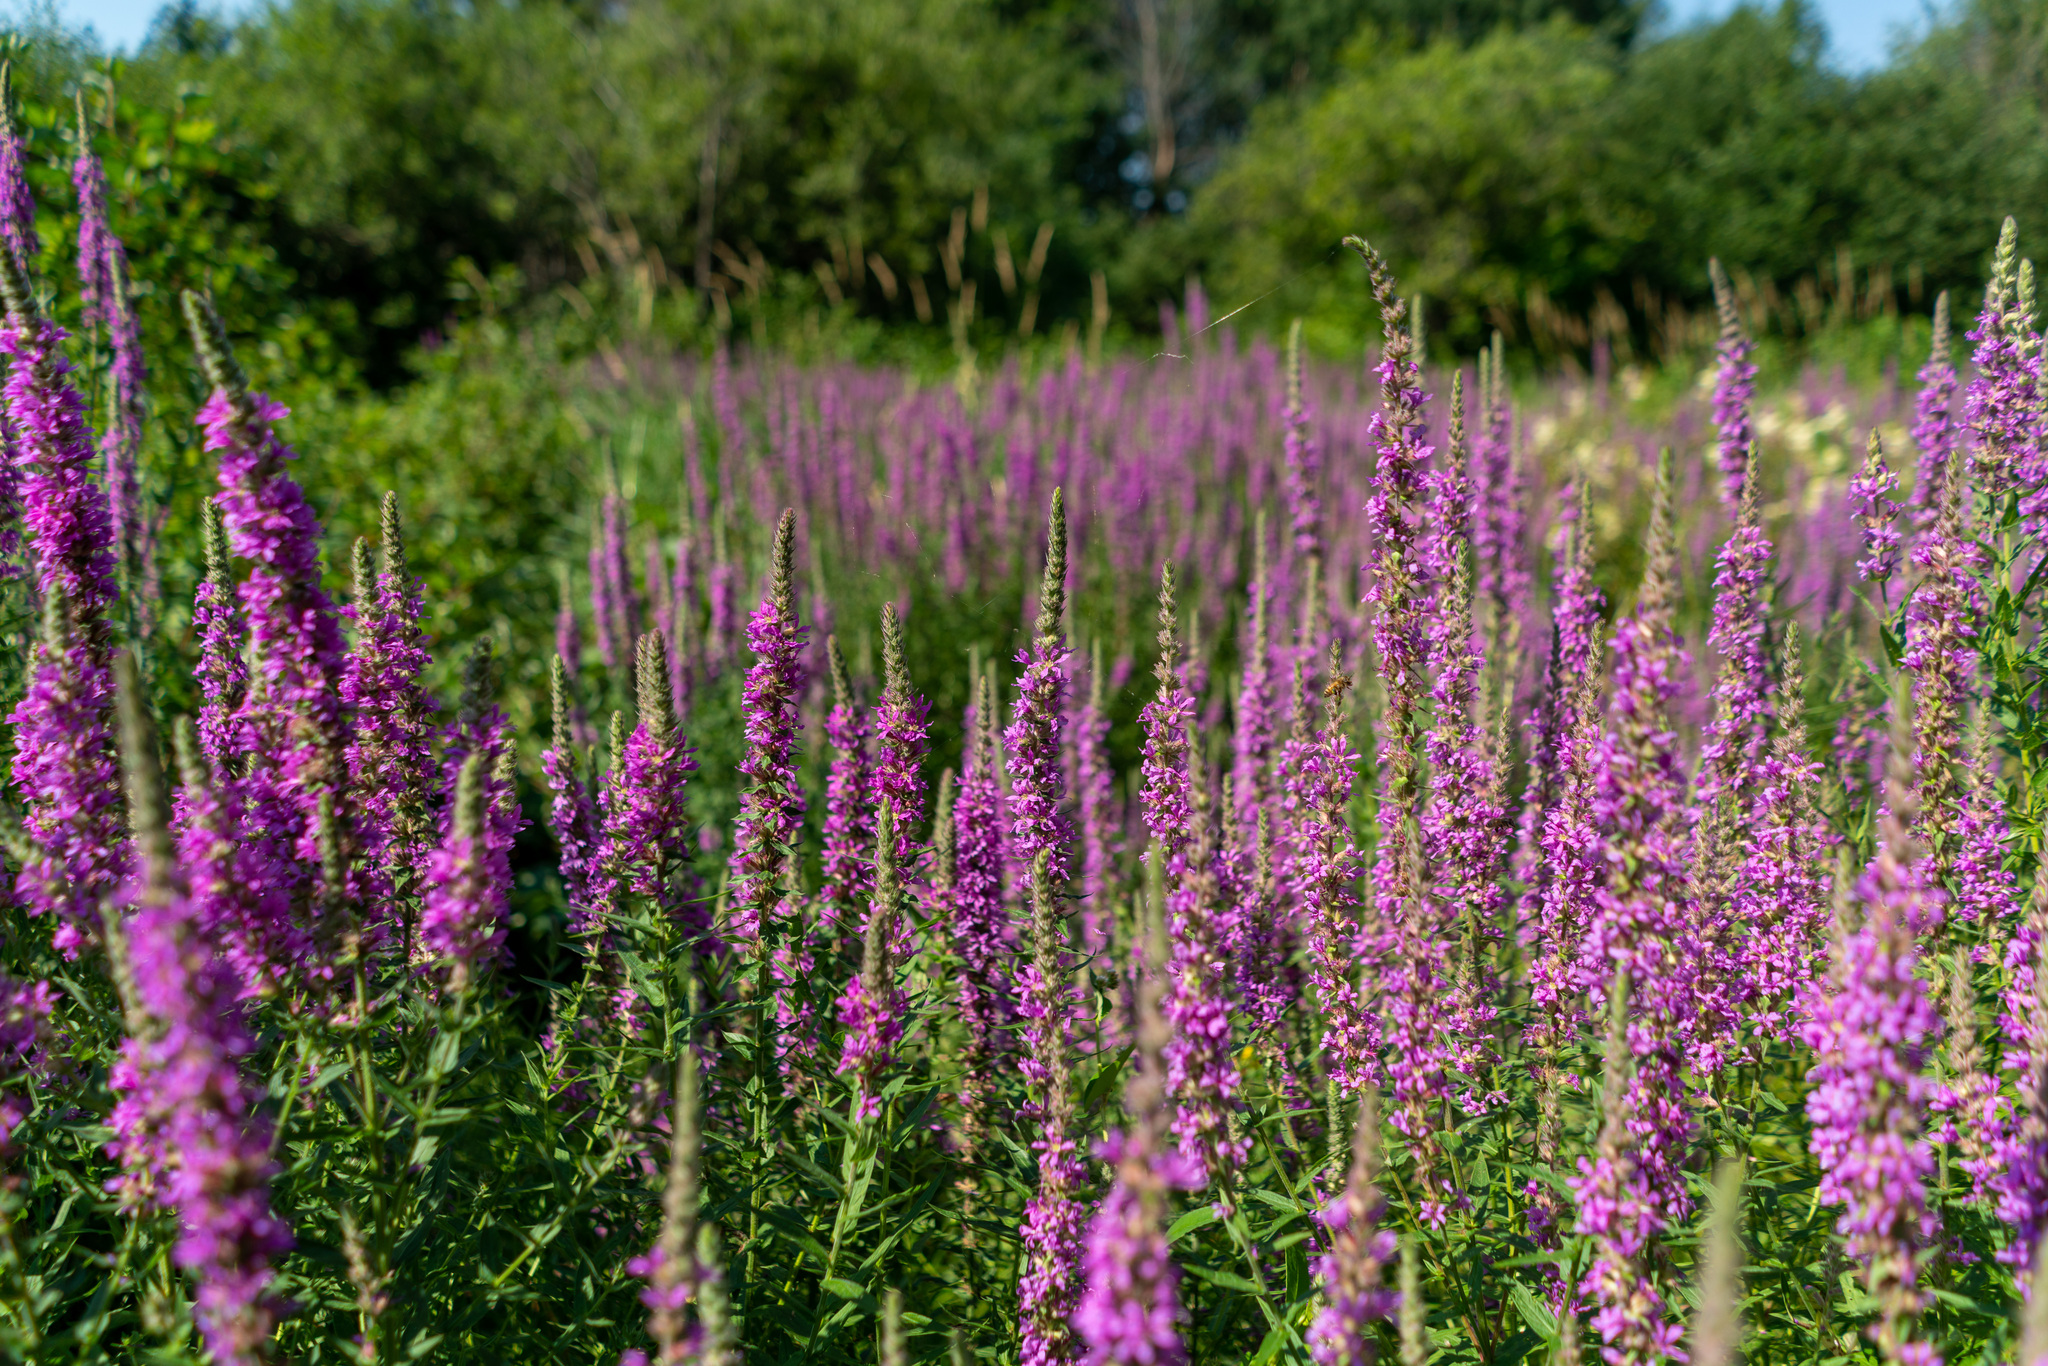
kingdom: Plantae
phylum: Tracheophyta
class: Magnoliopsida
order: Myrtales
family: Lythraceae
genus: Lythrum
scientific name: Lythrum salicaria
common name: Purple loosestrife
